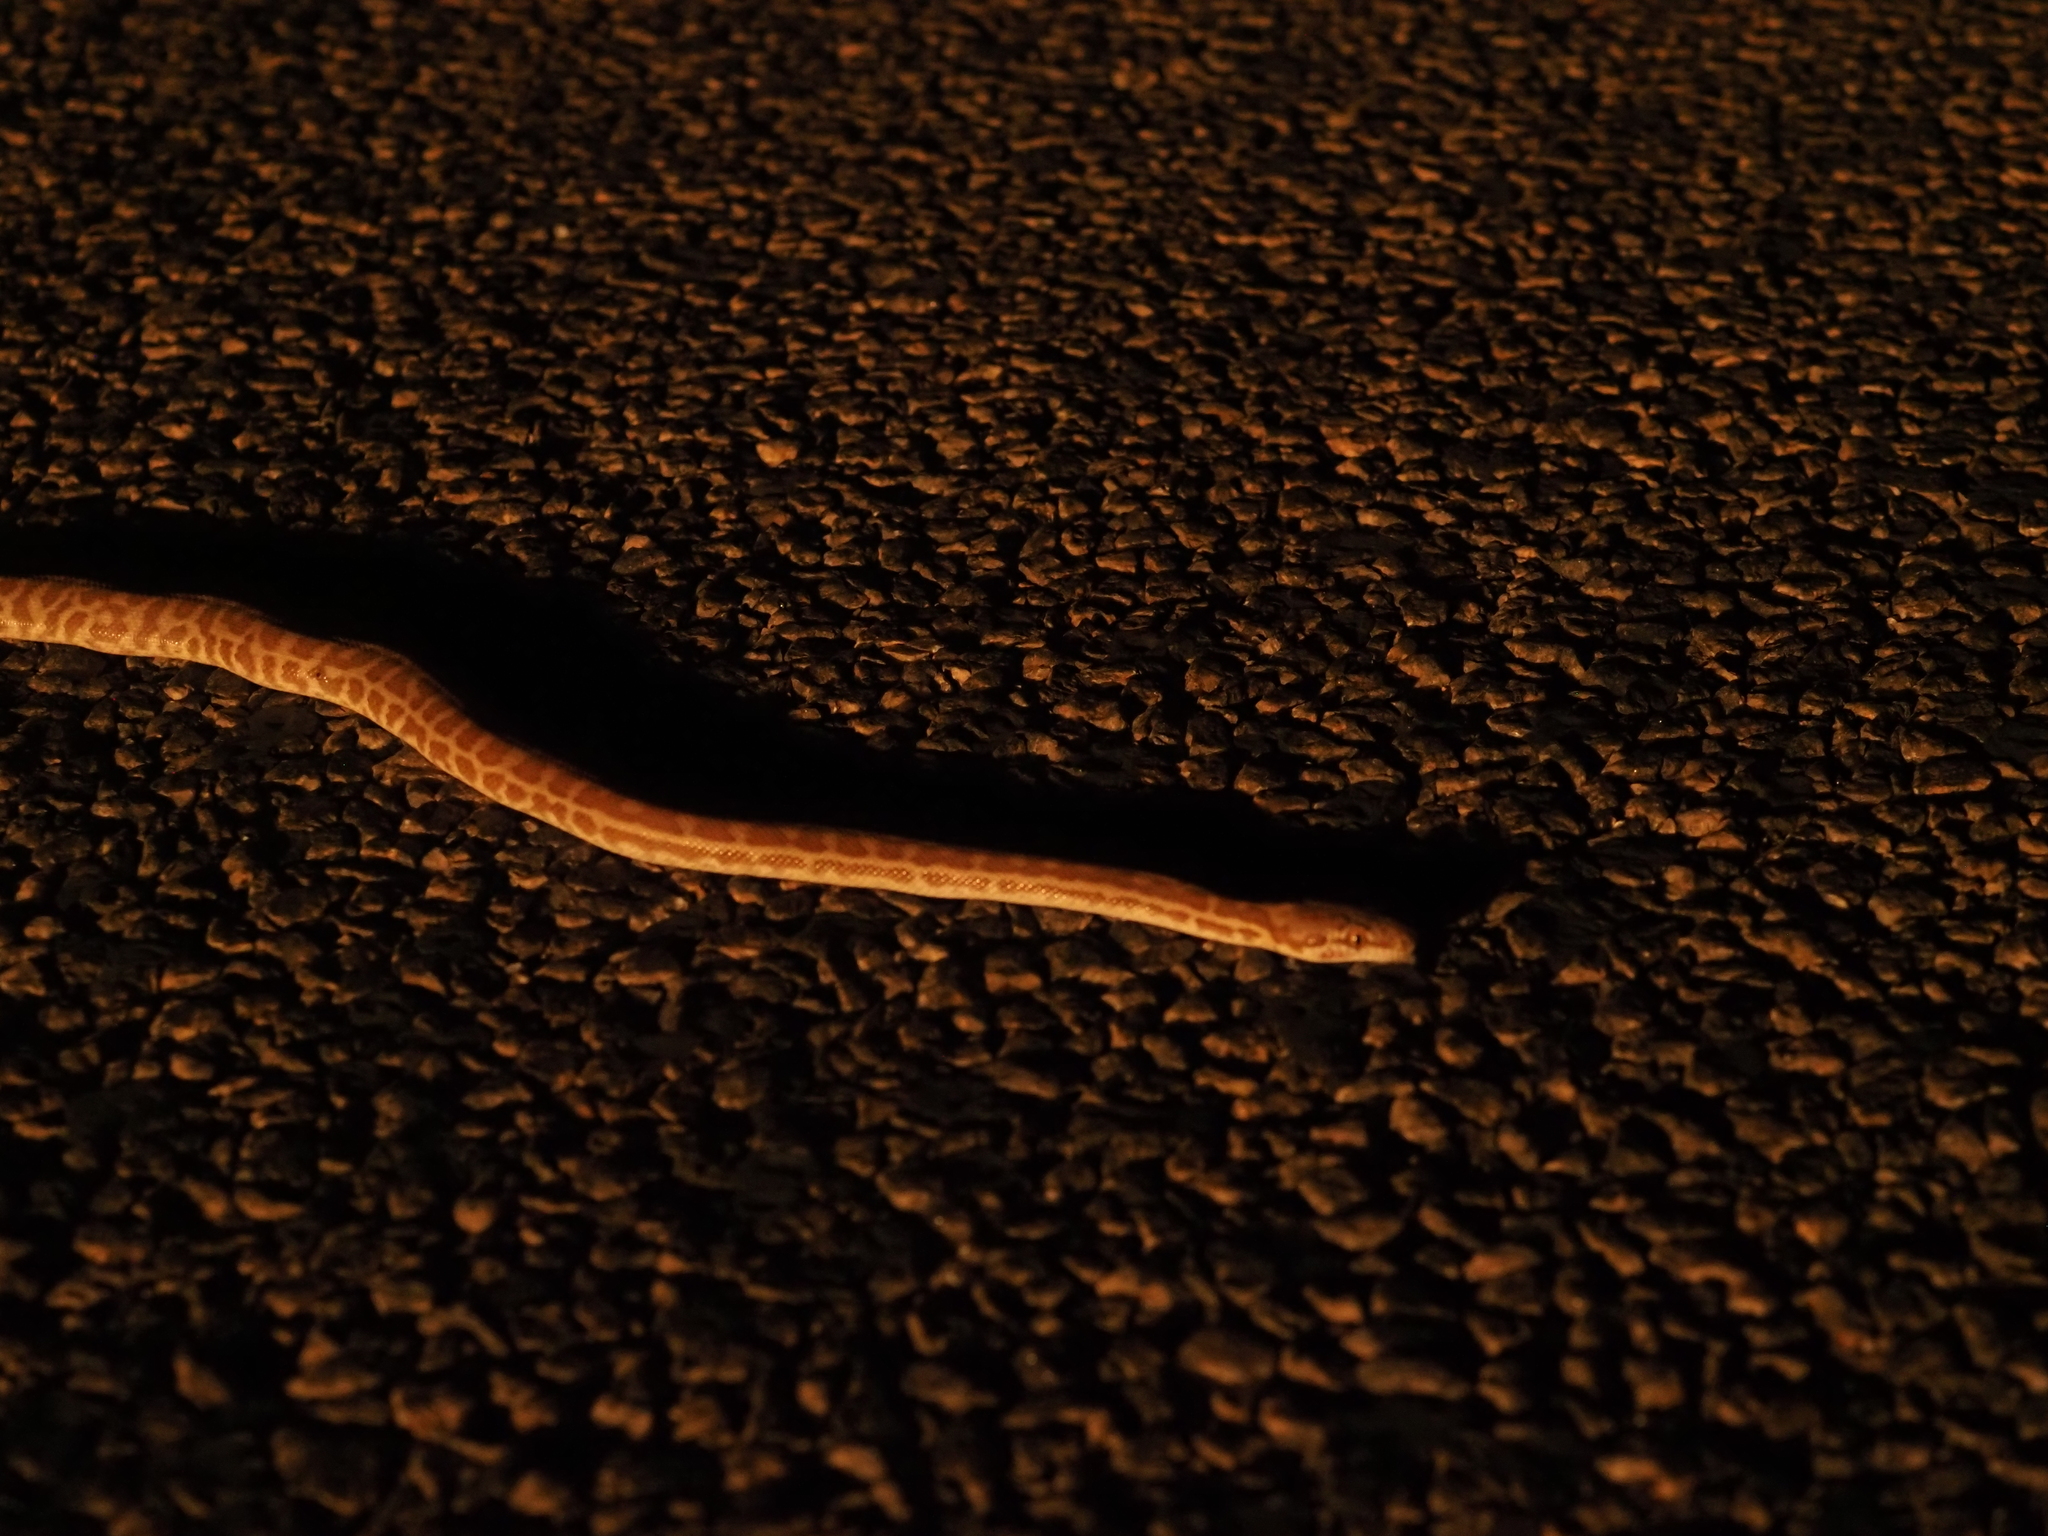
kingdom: Animalia
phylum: Chordata
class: Squamata
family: Pythonidae
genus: Antaresia
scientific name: Antaresia childreni
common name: Children's python
